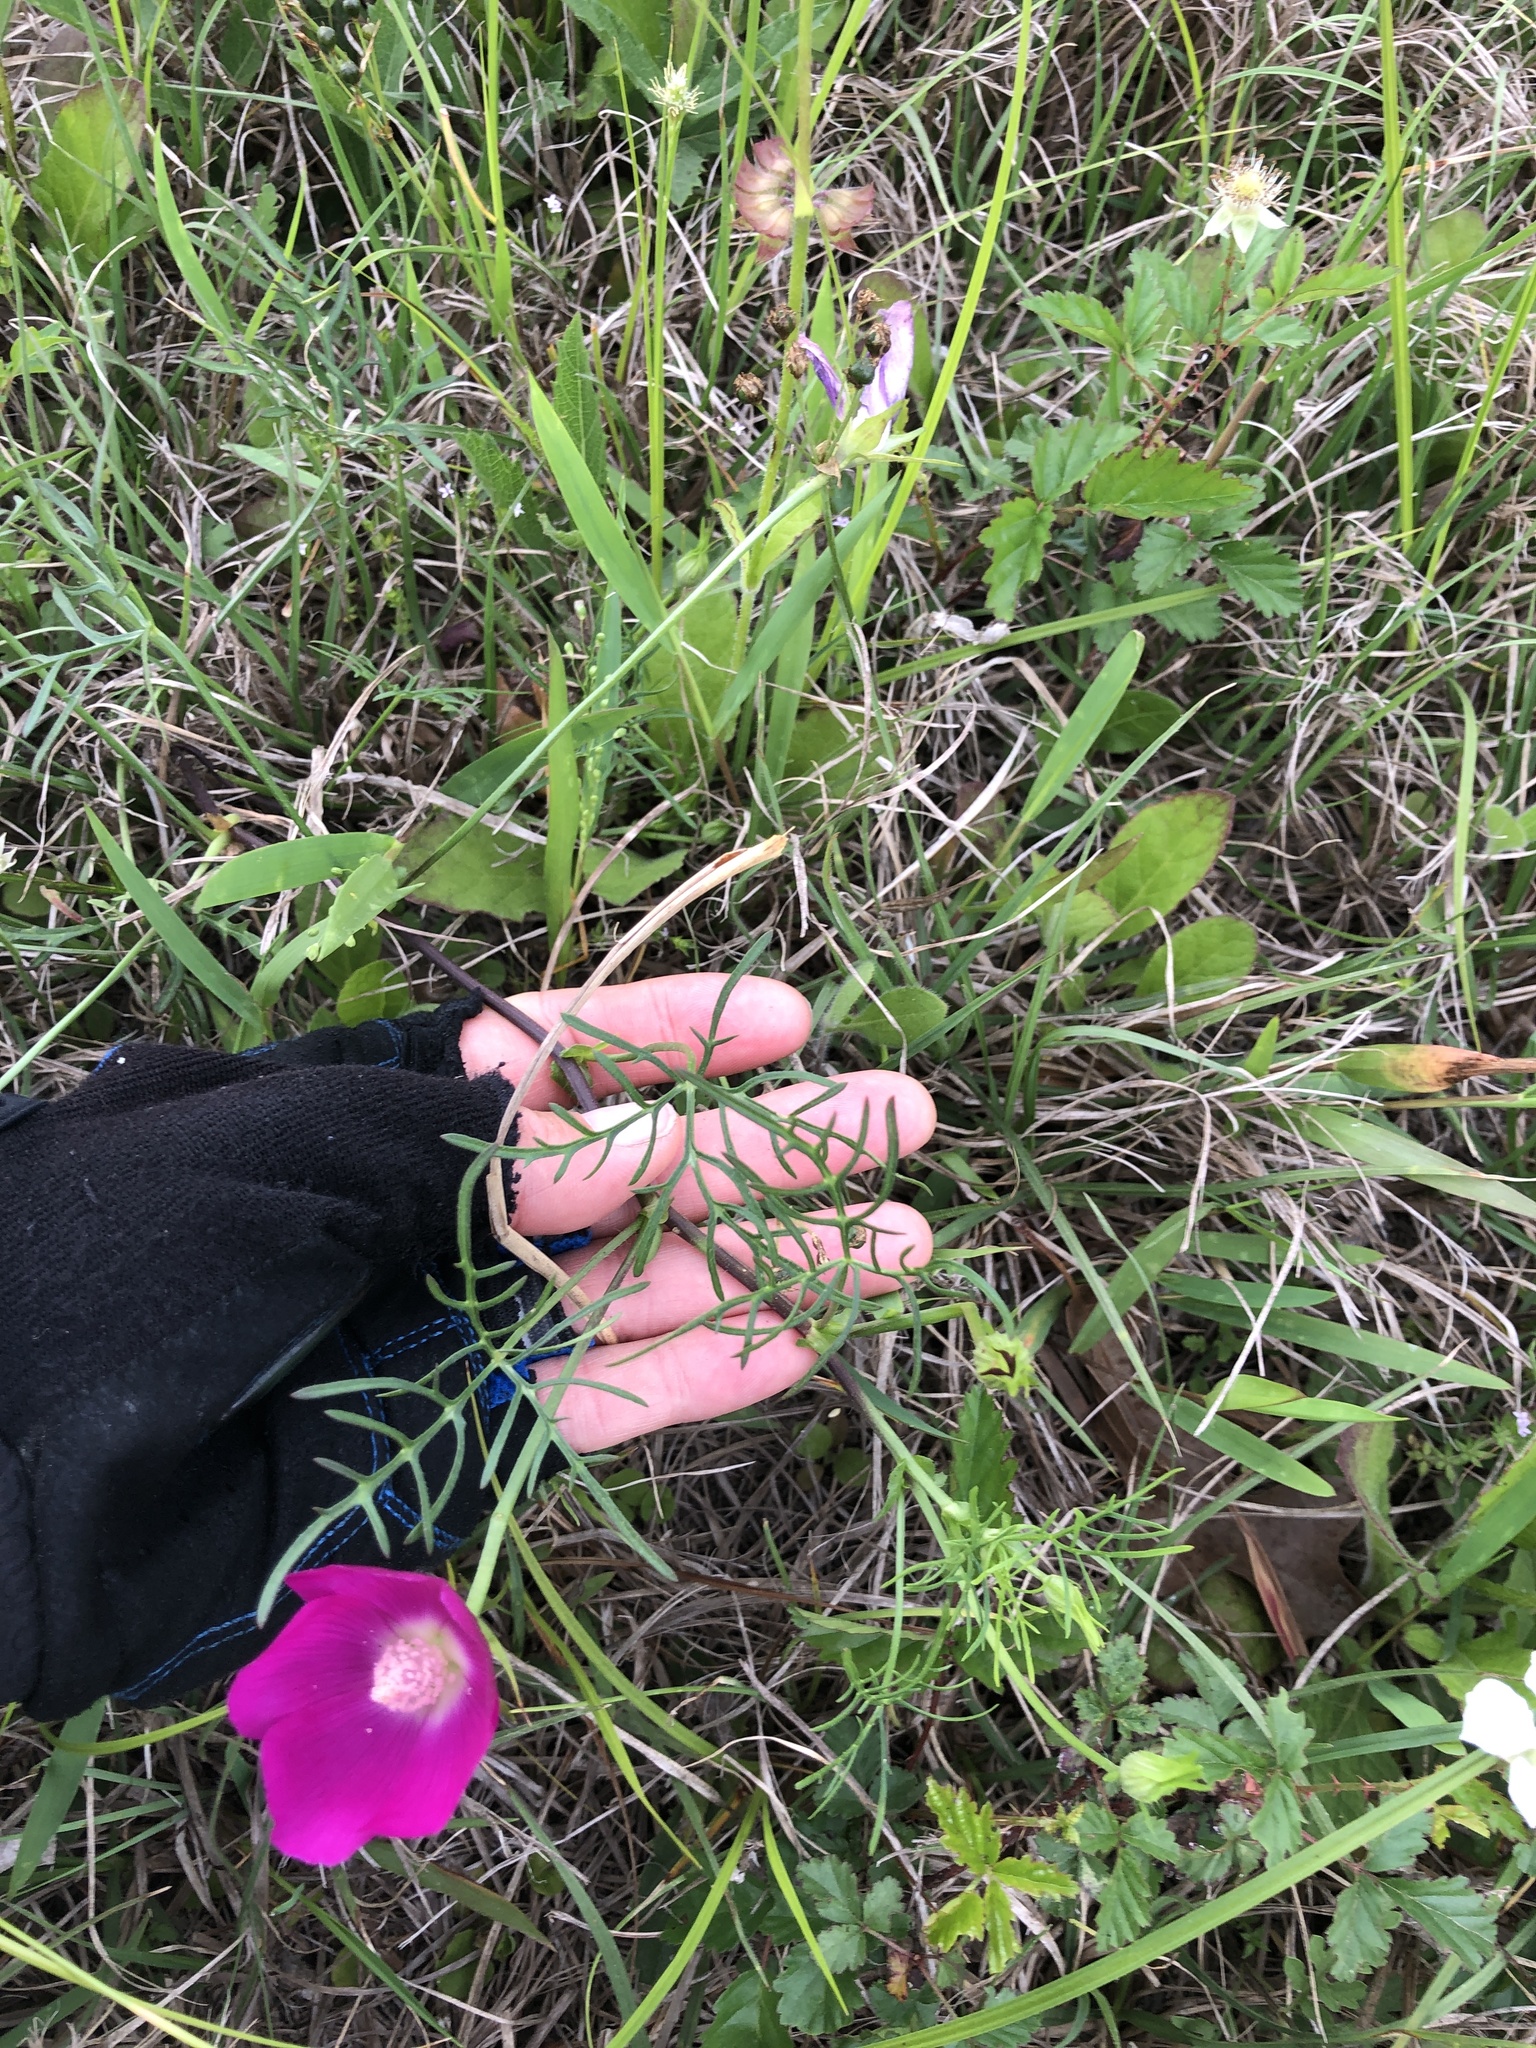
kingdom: Plantae
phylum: Tracheophyta
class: Magnoliopsida
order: Malvales
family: Malvaceae
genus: Callirhoe
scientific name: Callirhoe involucrata
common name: Purple poppy-mallow
